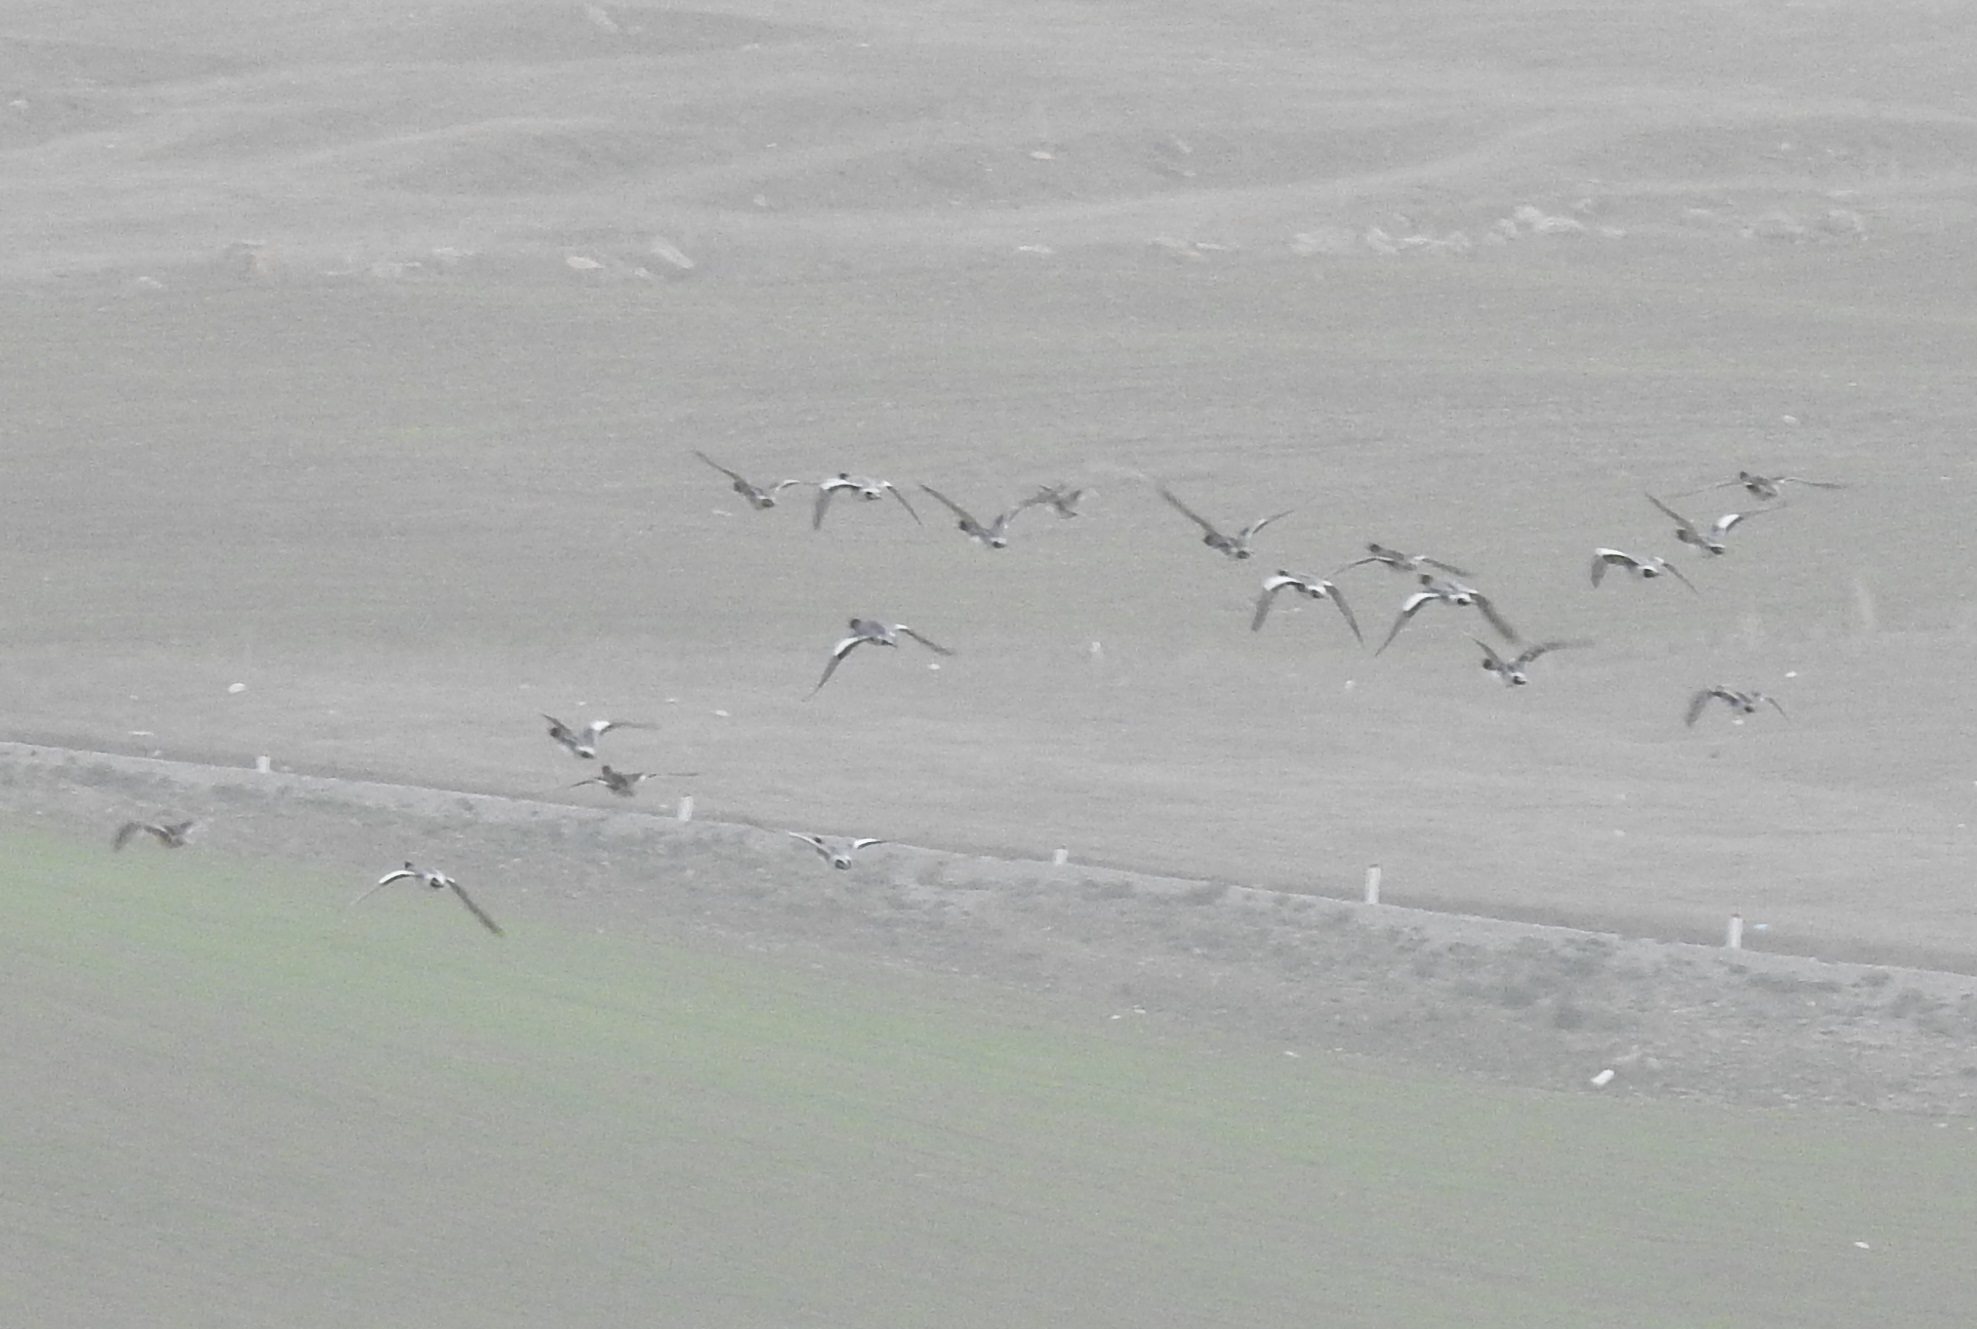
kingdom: Animalia
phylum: Chordata
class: Aves
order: Anseriformes
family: Anatidae
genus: Mareca
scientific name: Mareca penelope
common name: Eurasian wigeon
